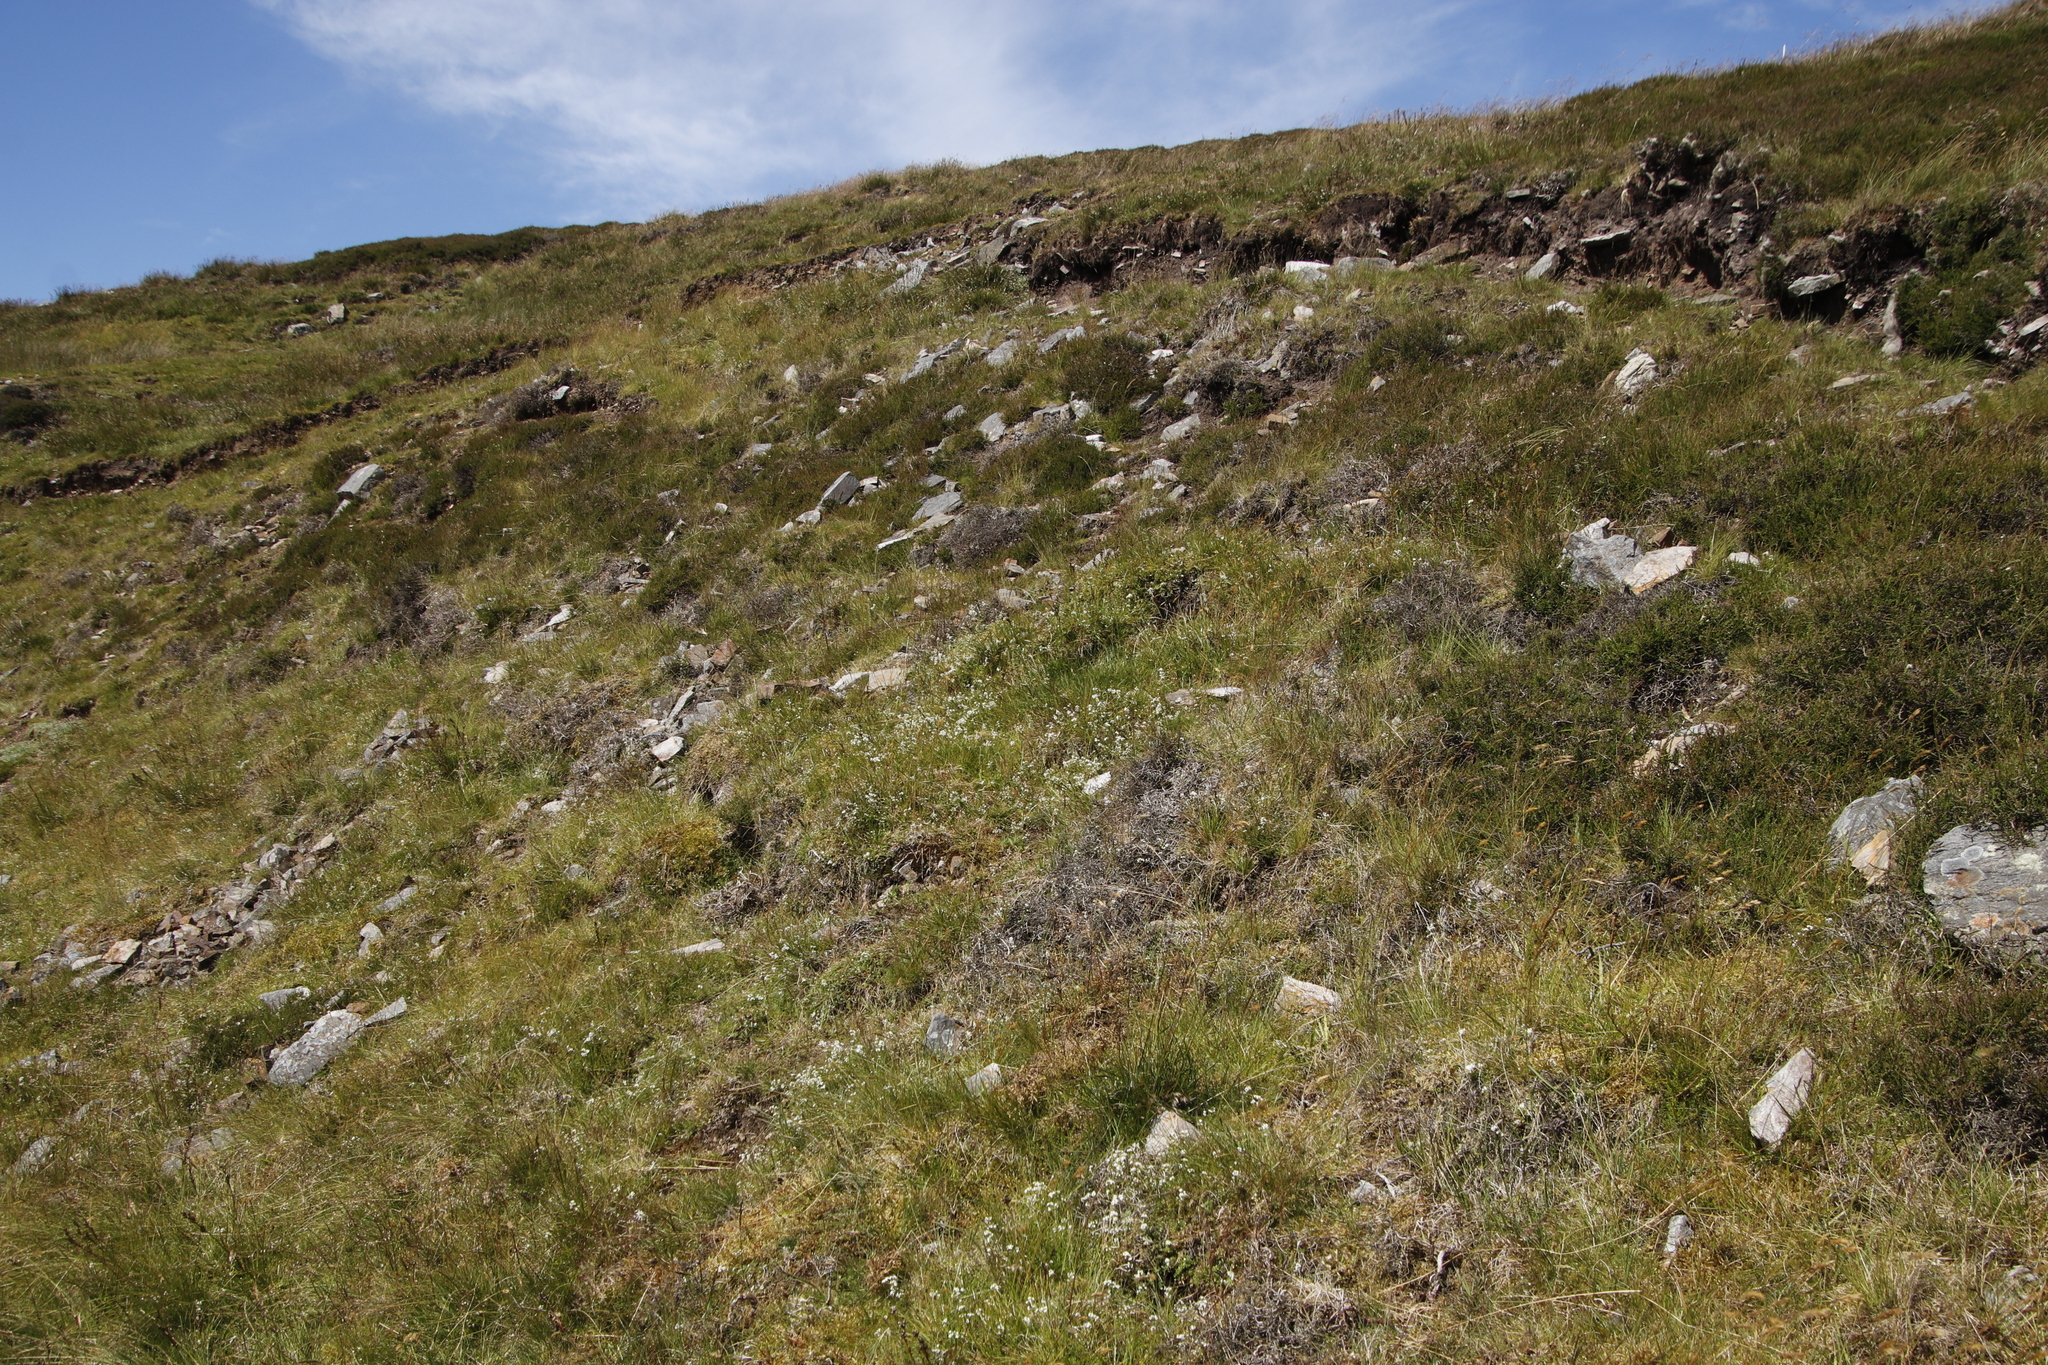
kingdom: Plantae
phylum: Tracheophyta
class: Magnoliopsida
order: Gentianales
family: Rubiaceae
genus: Galium
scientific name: Galium saxatile
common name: Heath bedstraw
